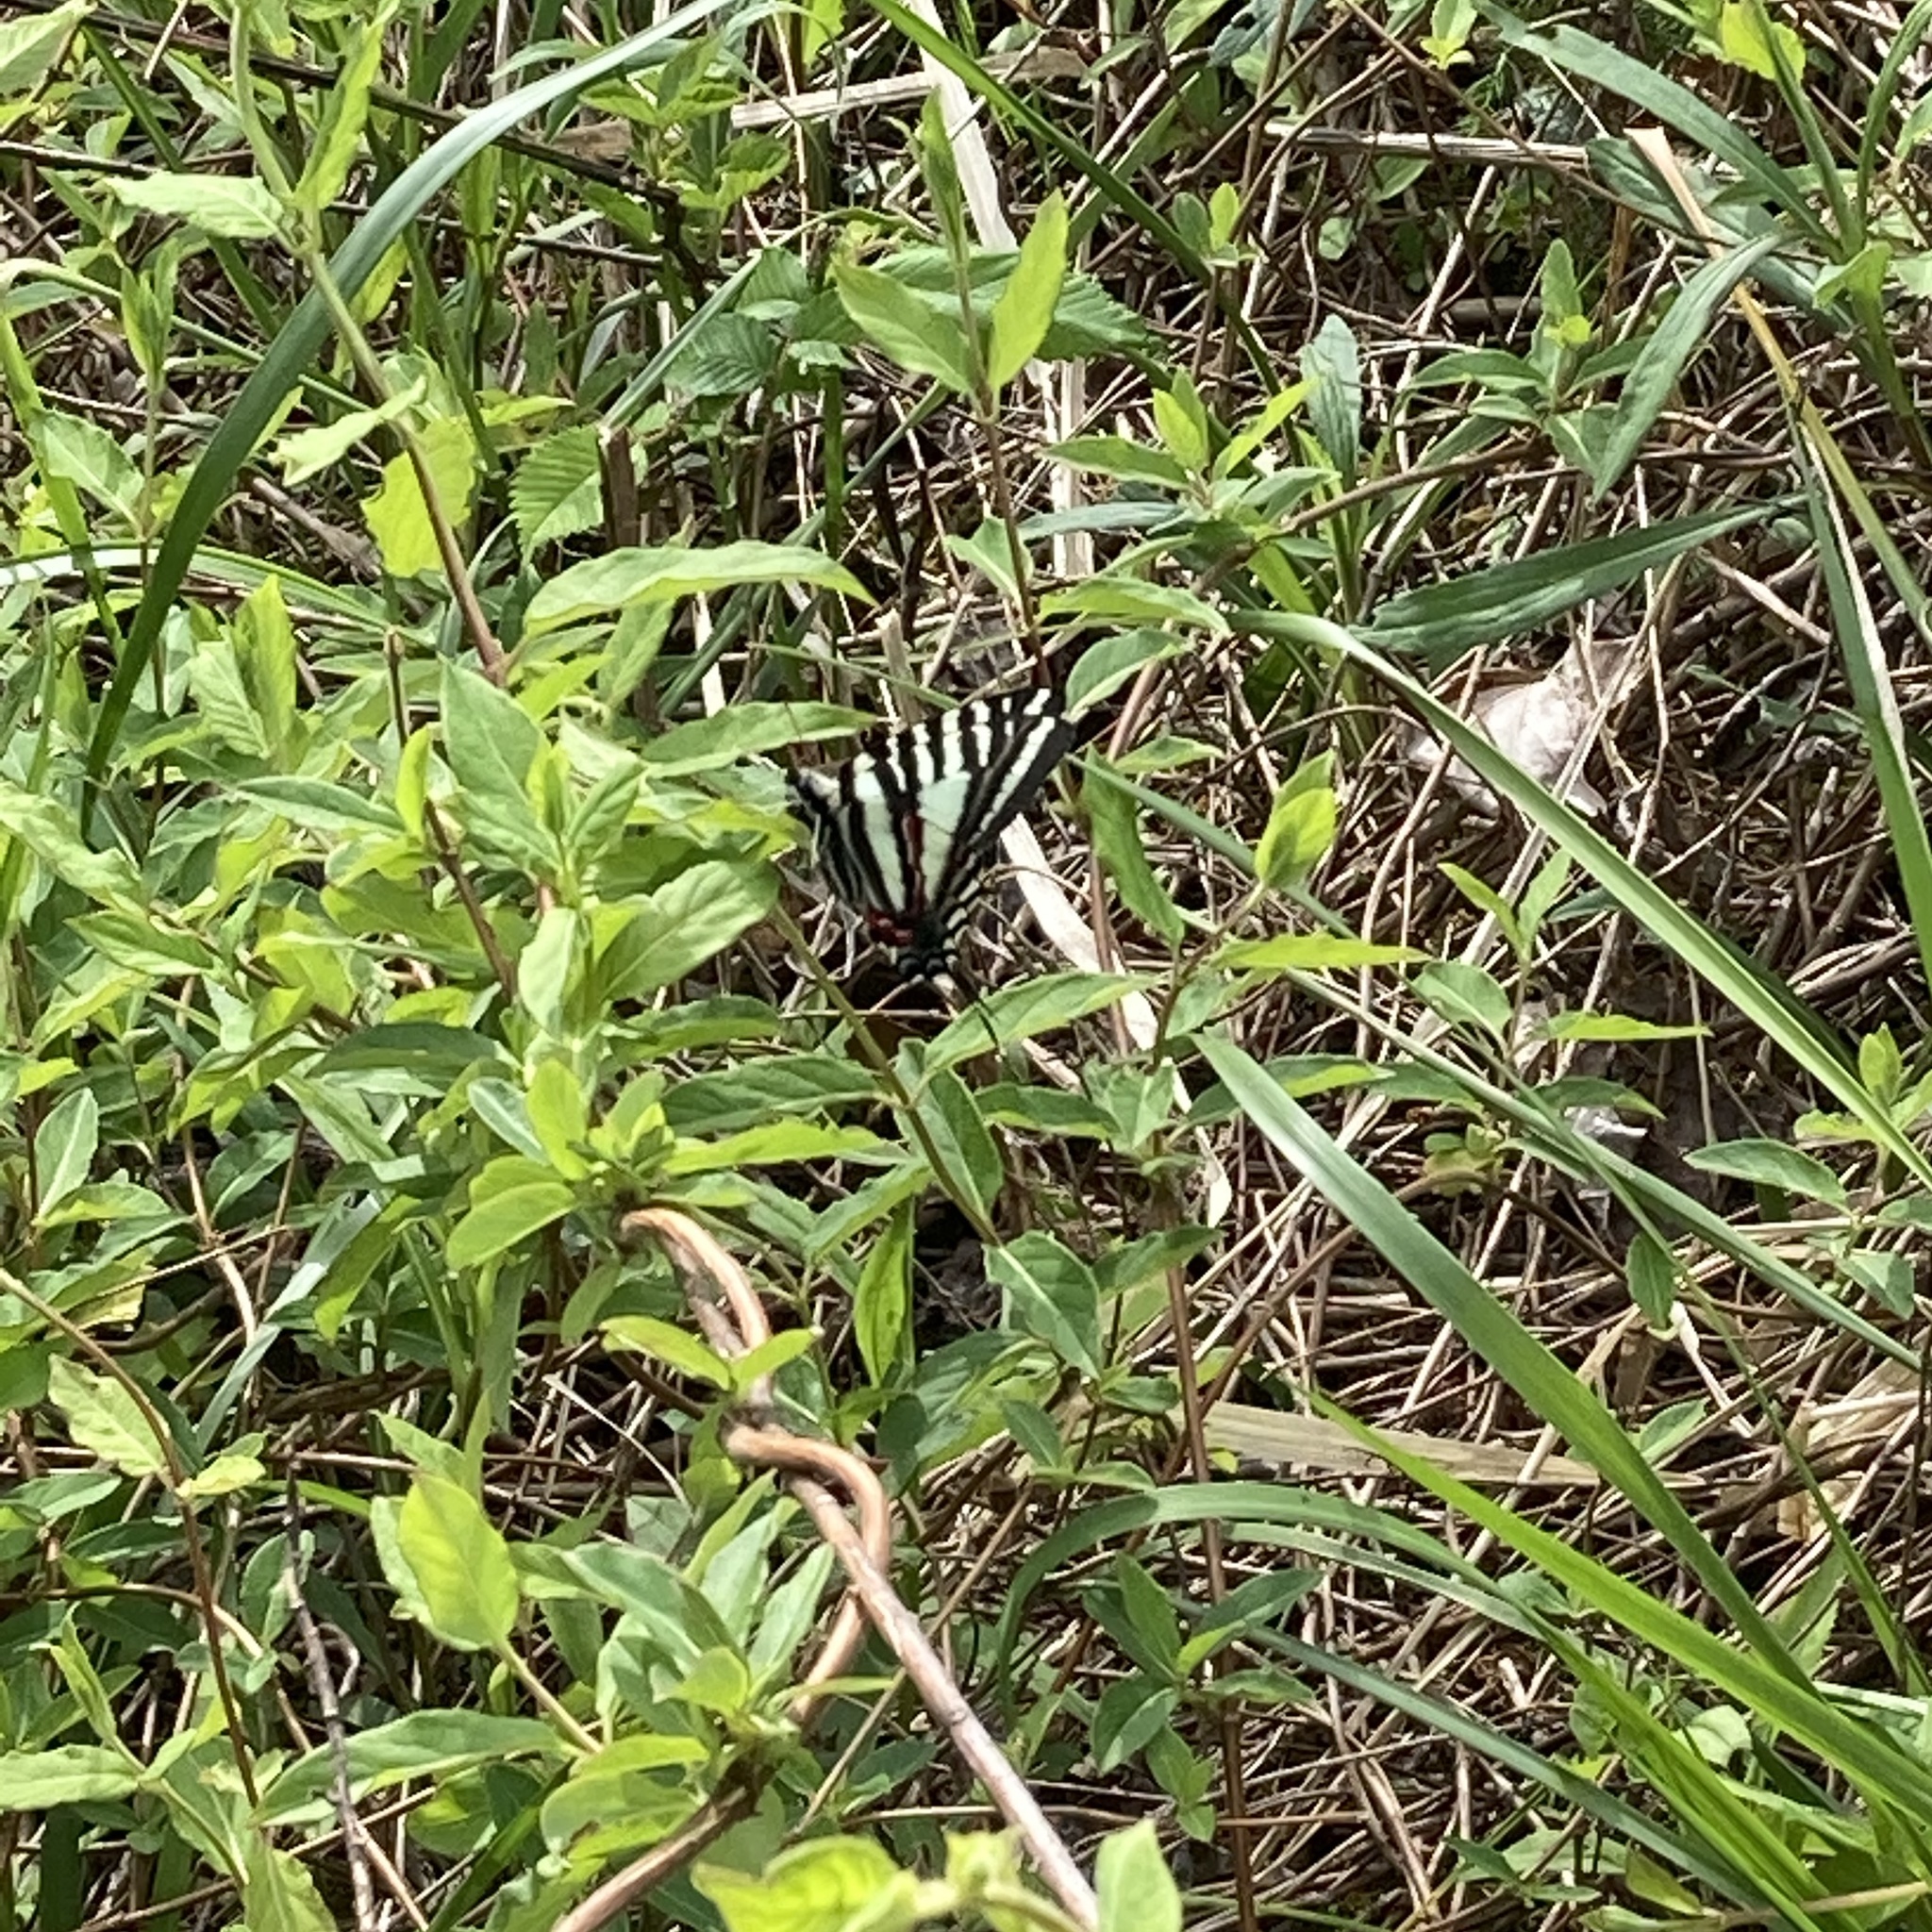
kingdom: Animalia
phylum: Arthropoda
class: Insecta
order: Lepidoptera
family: Papilionidae
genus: Protographium
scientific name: Protographium marcellus
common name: Zebra swallowtail
